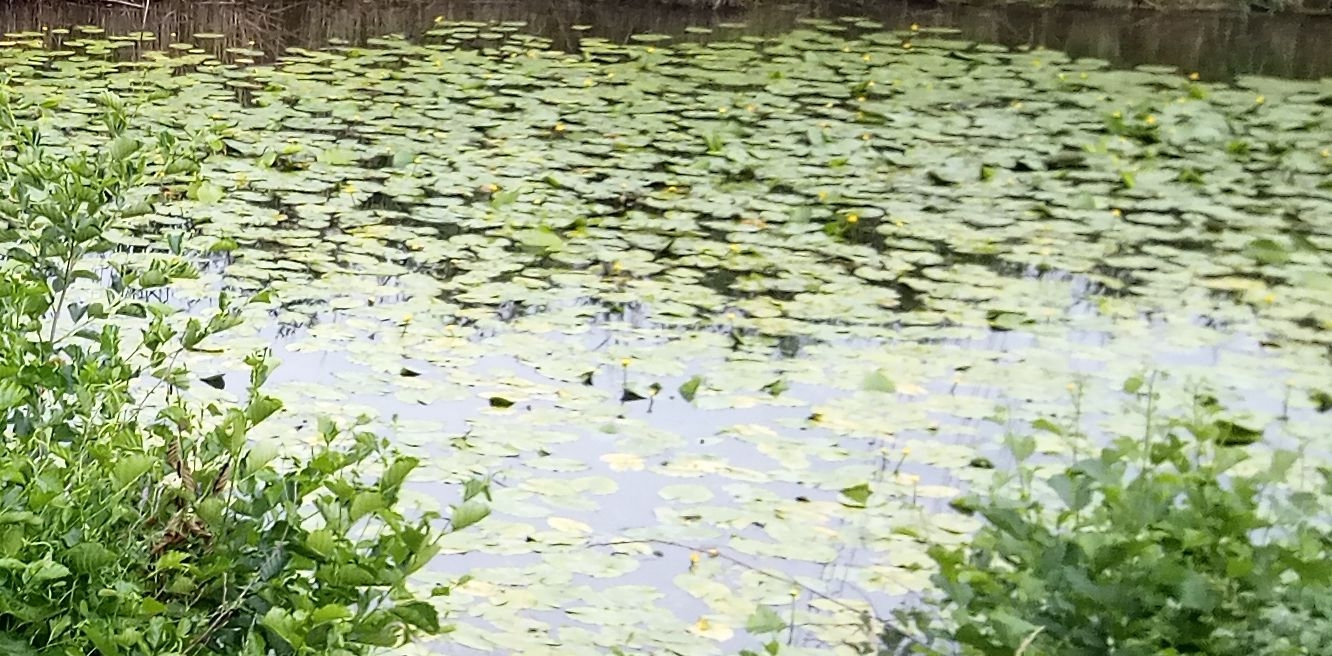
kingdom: Plantae
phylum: Tracheophyta
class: Magnoliopsida
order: Nymphaeales
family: Nymphaeaceae
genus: Nuphar
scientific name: Nuphar lutea
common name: Yellow water-lily
